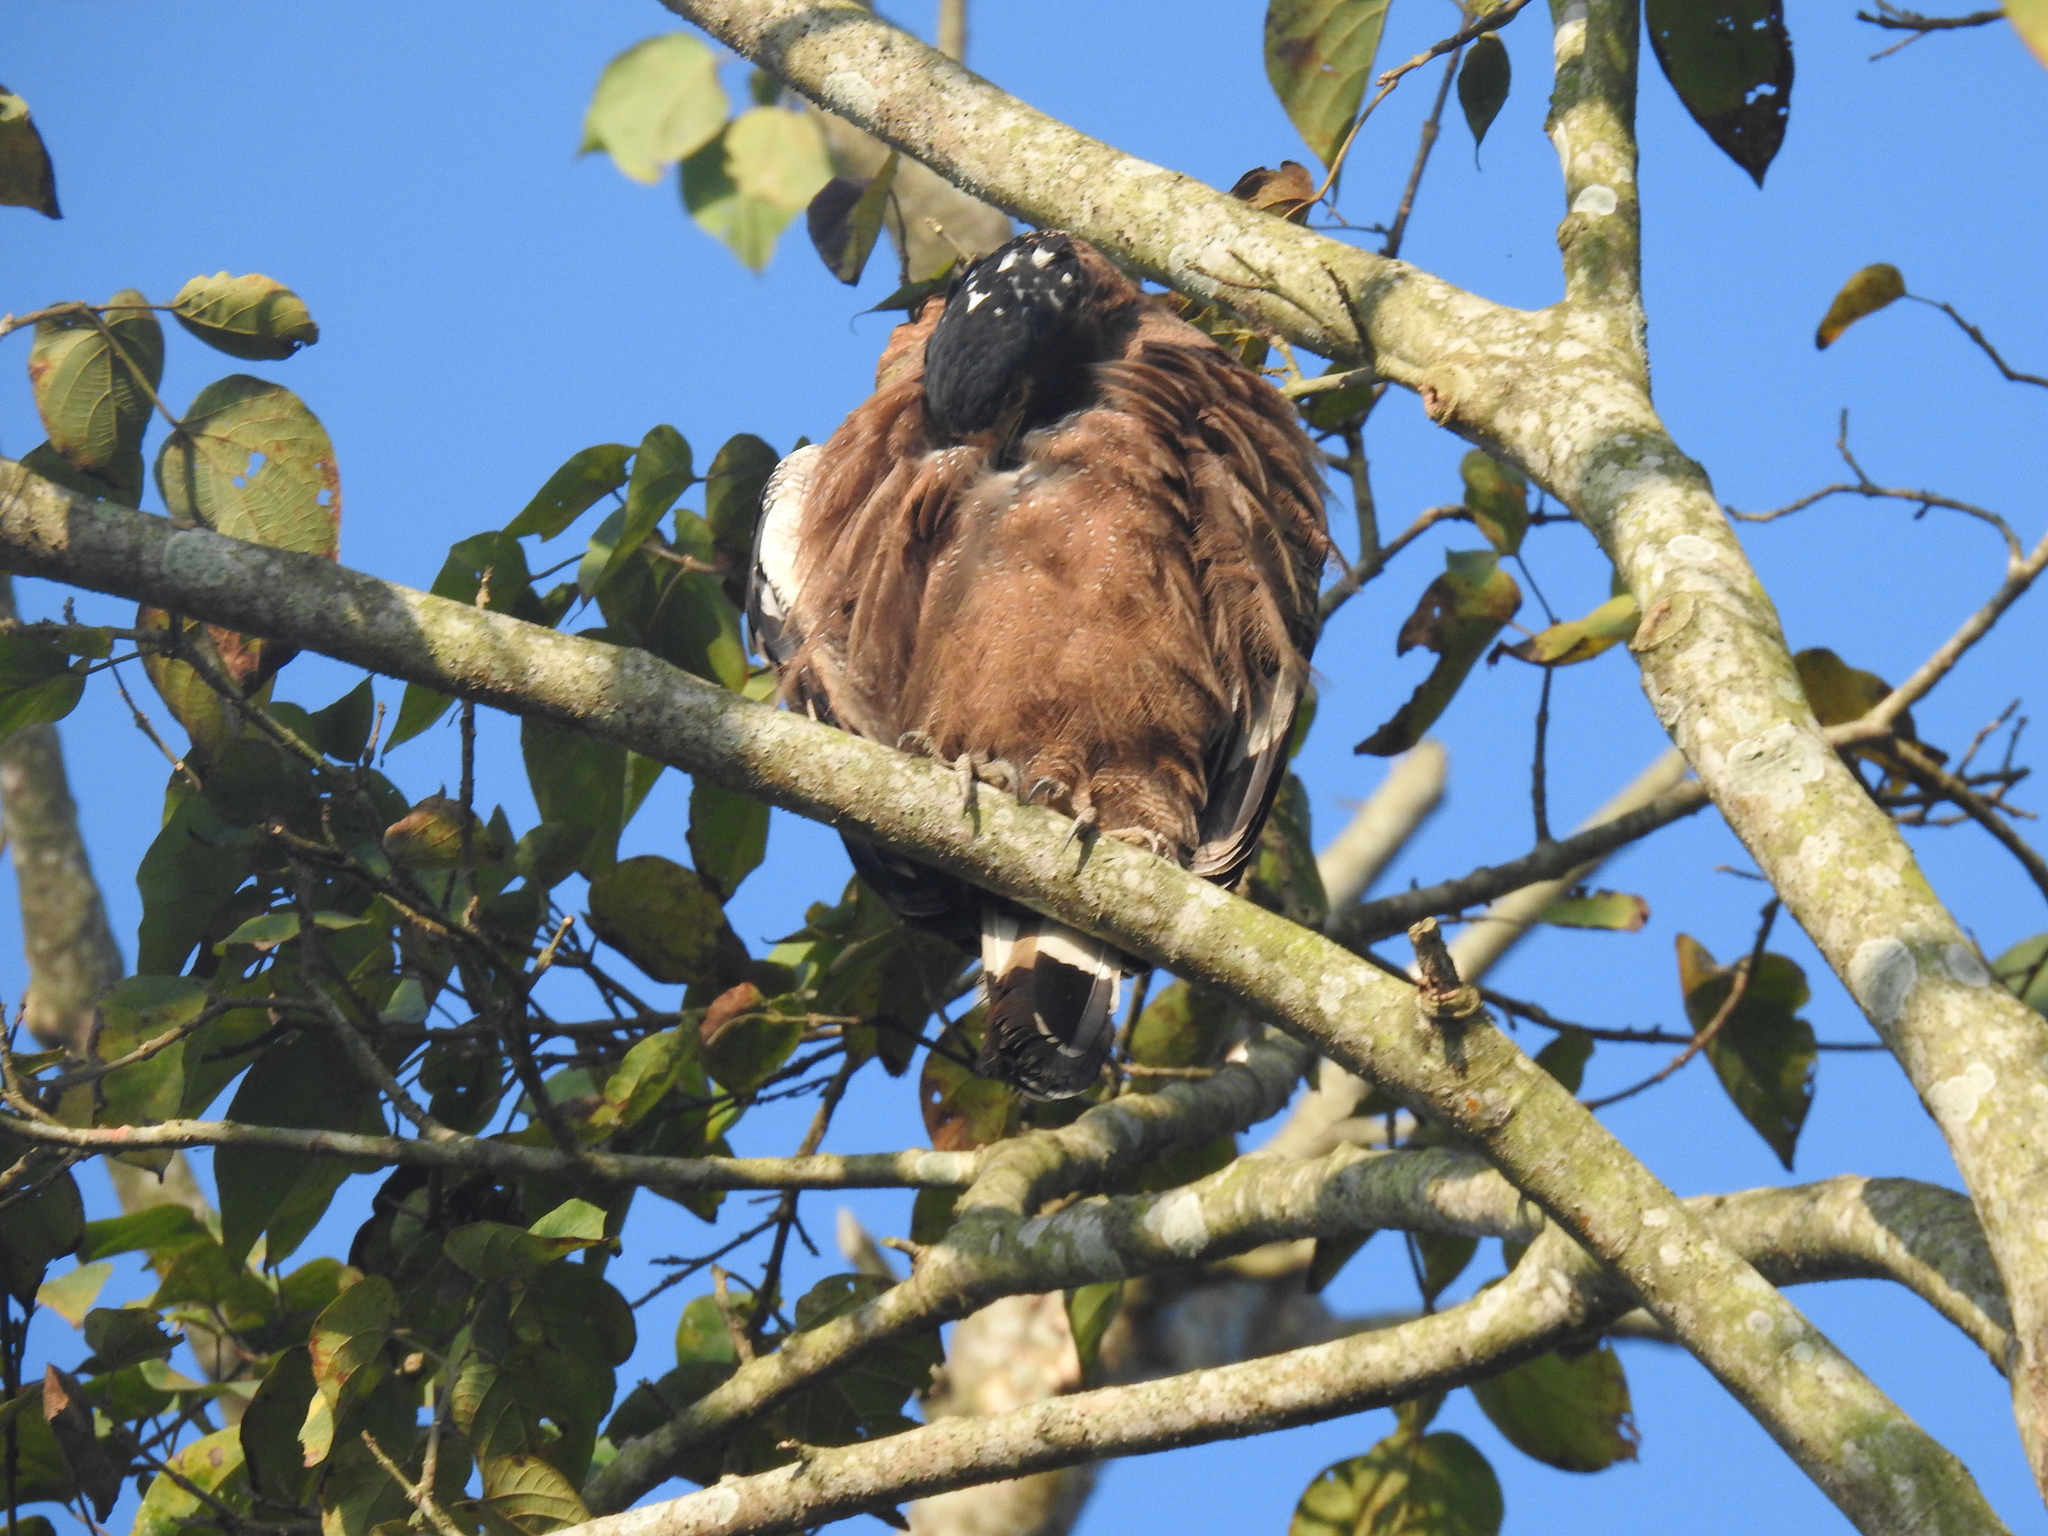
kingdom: Animalia
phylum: Chordata
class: Aves
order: Accipitriformes
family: Accipitridae
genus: Spilornis
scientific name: Spilornis cheela
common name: Crested serpent eagle
